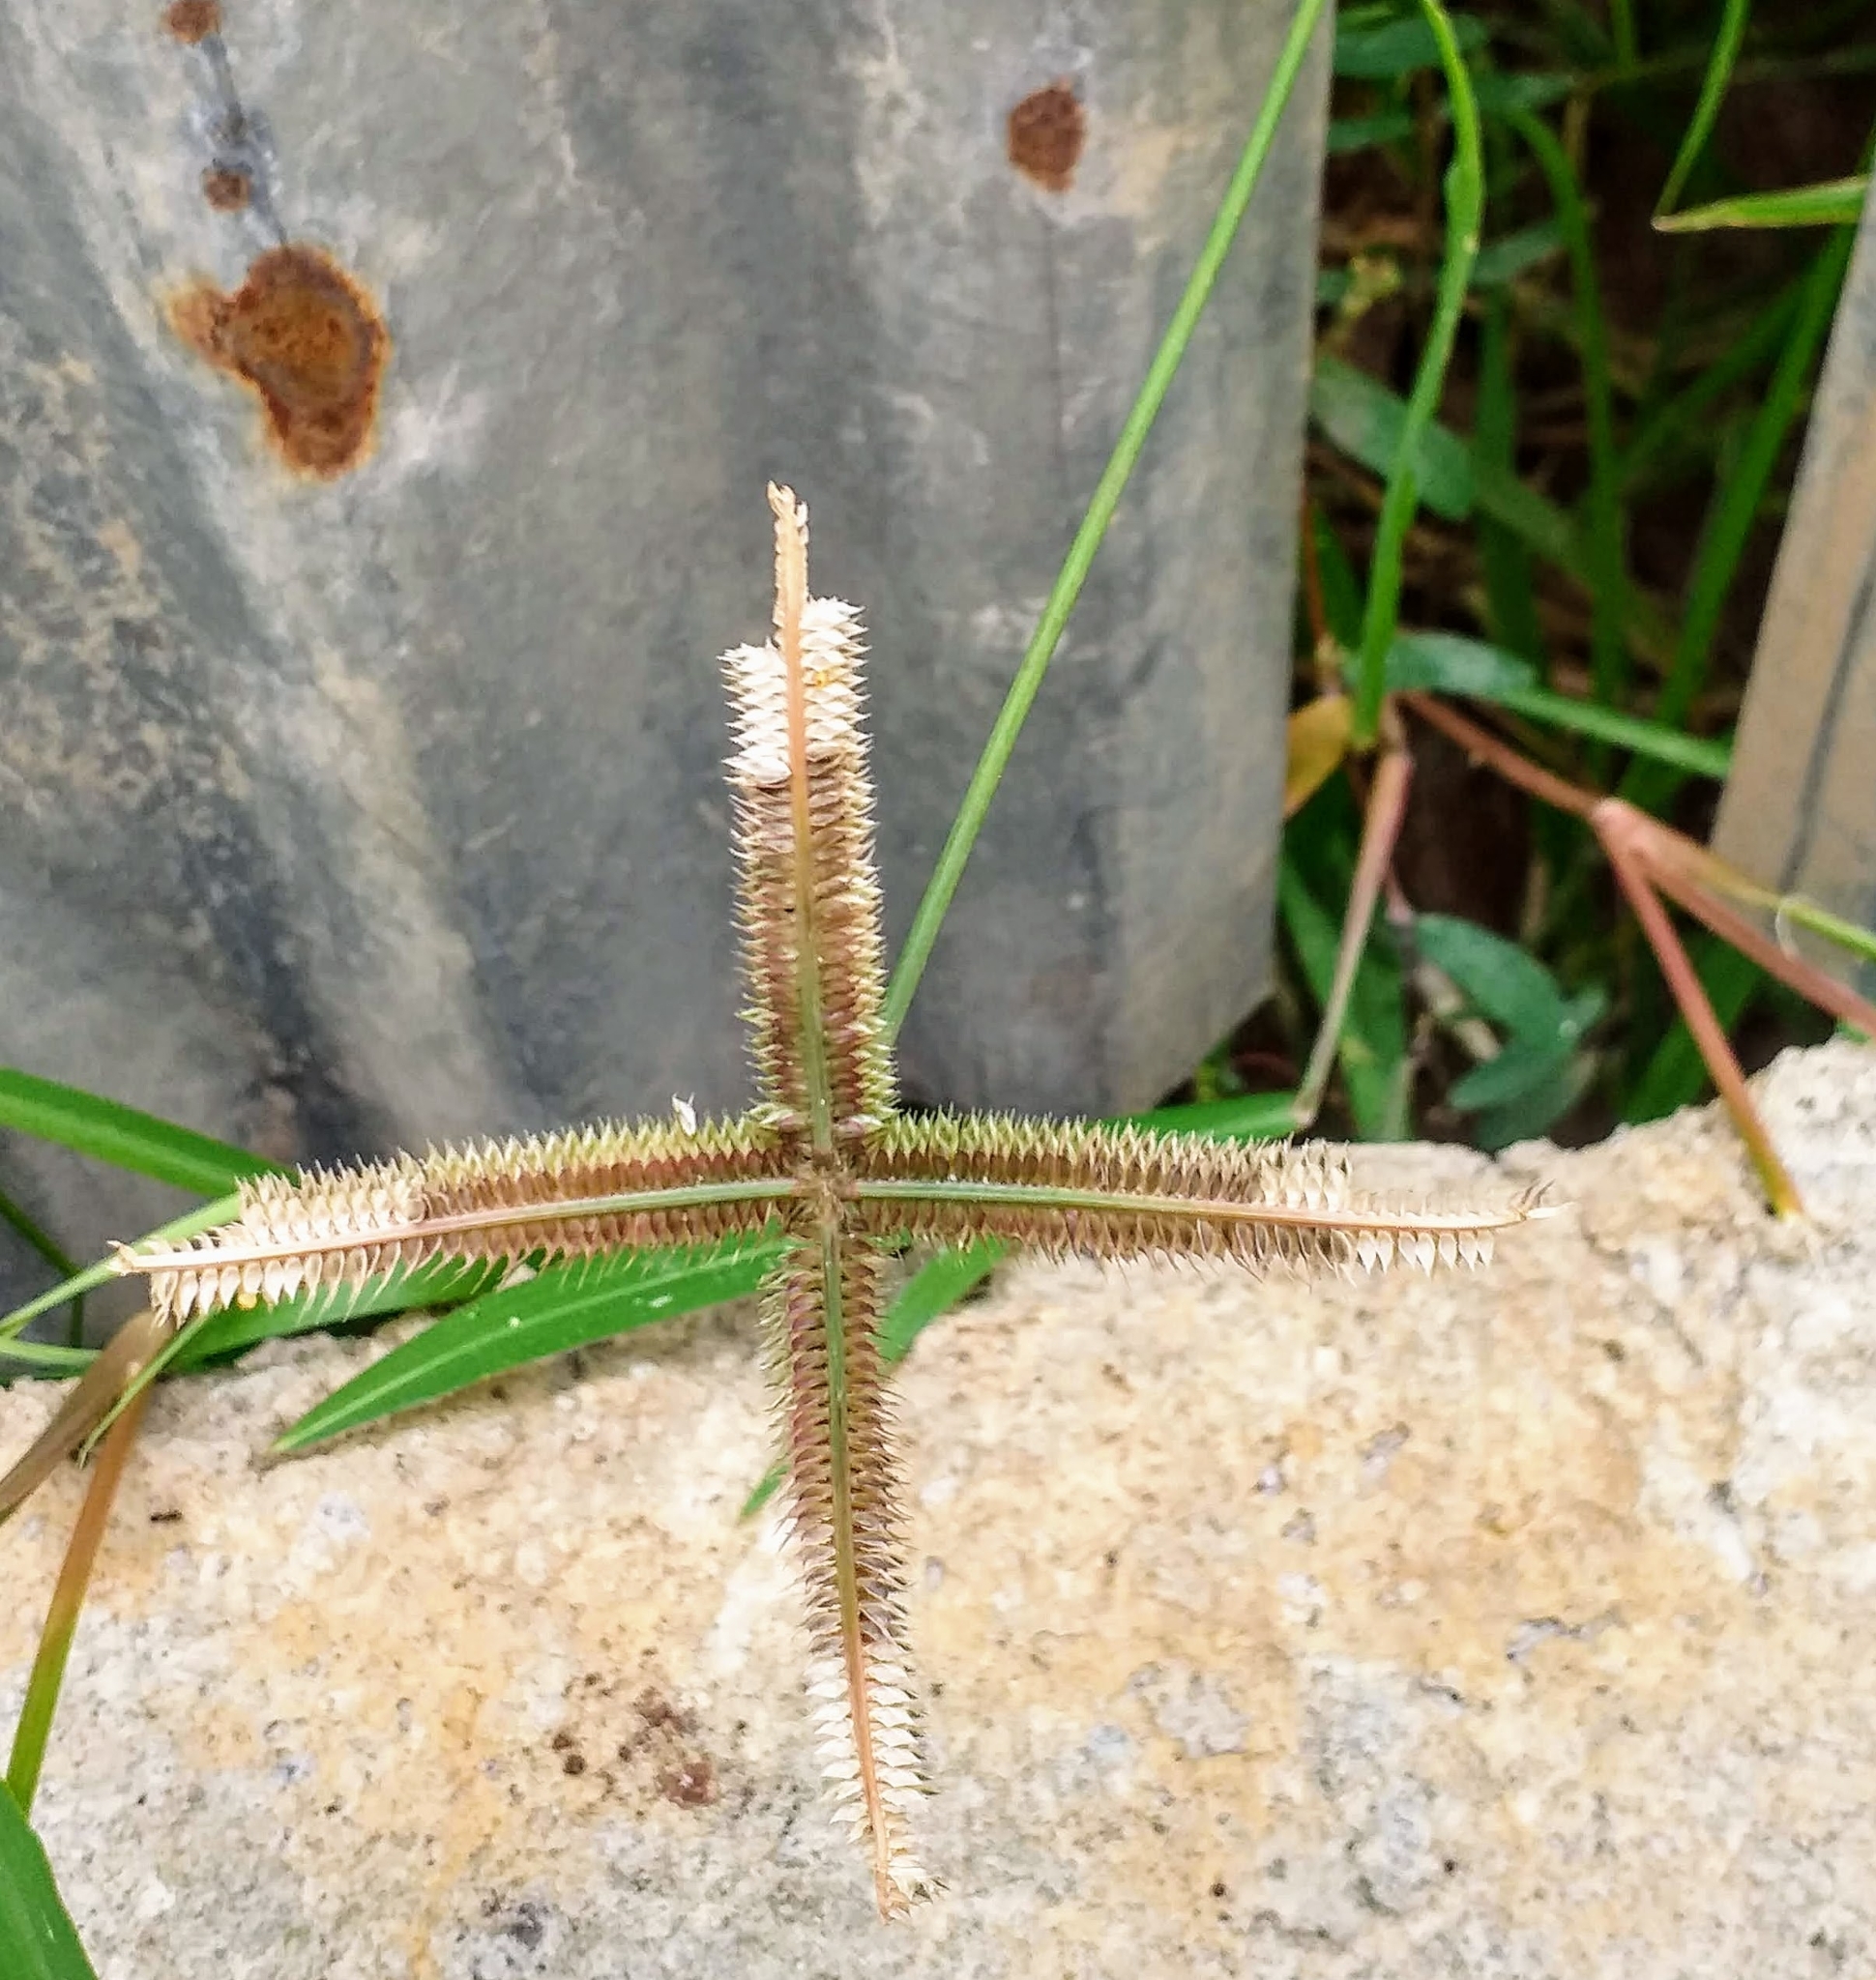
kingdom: Plantae
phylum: Tracheophyta
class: Liliopsida
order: Poales
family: Poaceae
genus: Dactyloctenium
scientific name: Dactyloctenium aegyptium
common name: Egyptian grass
